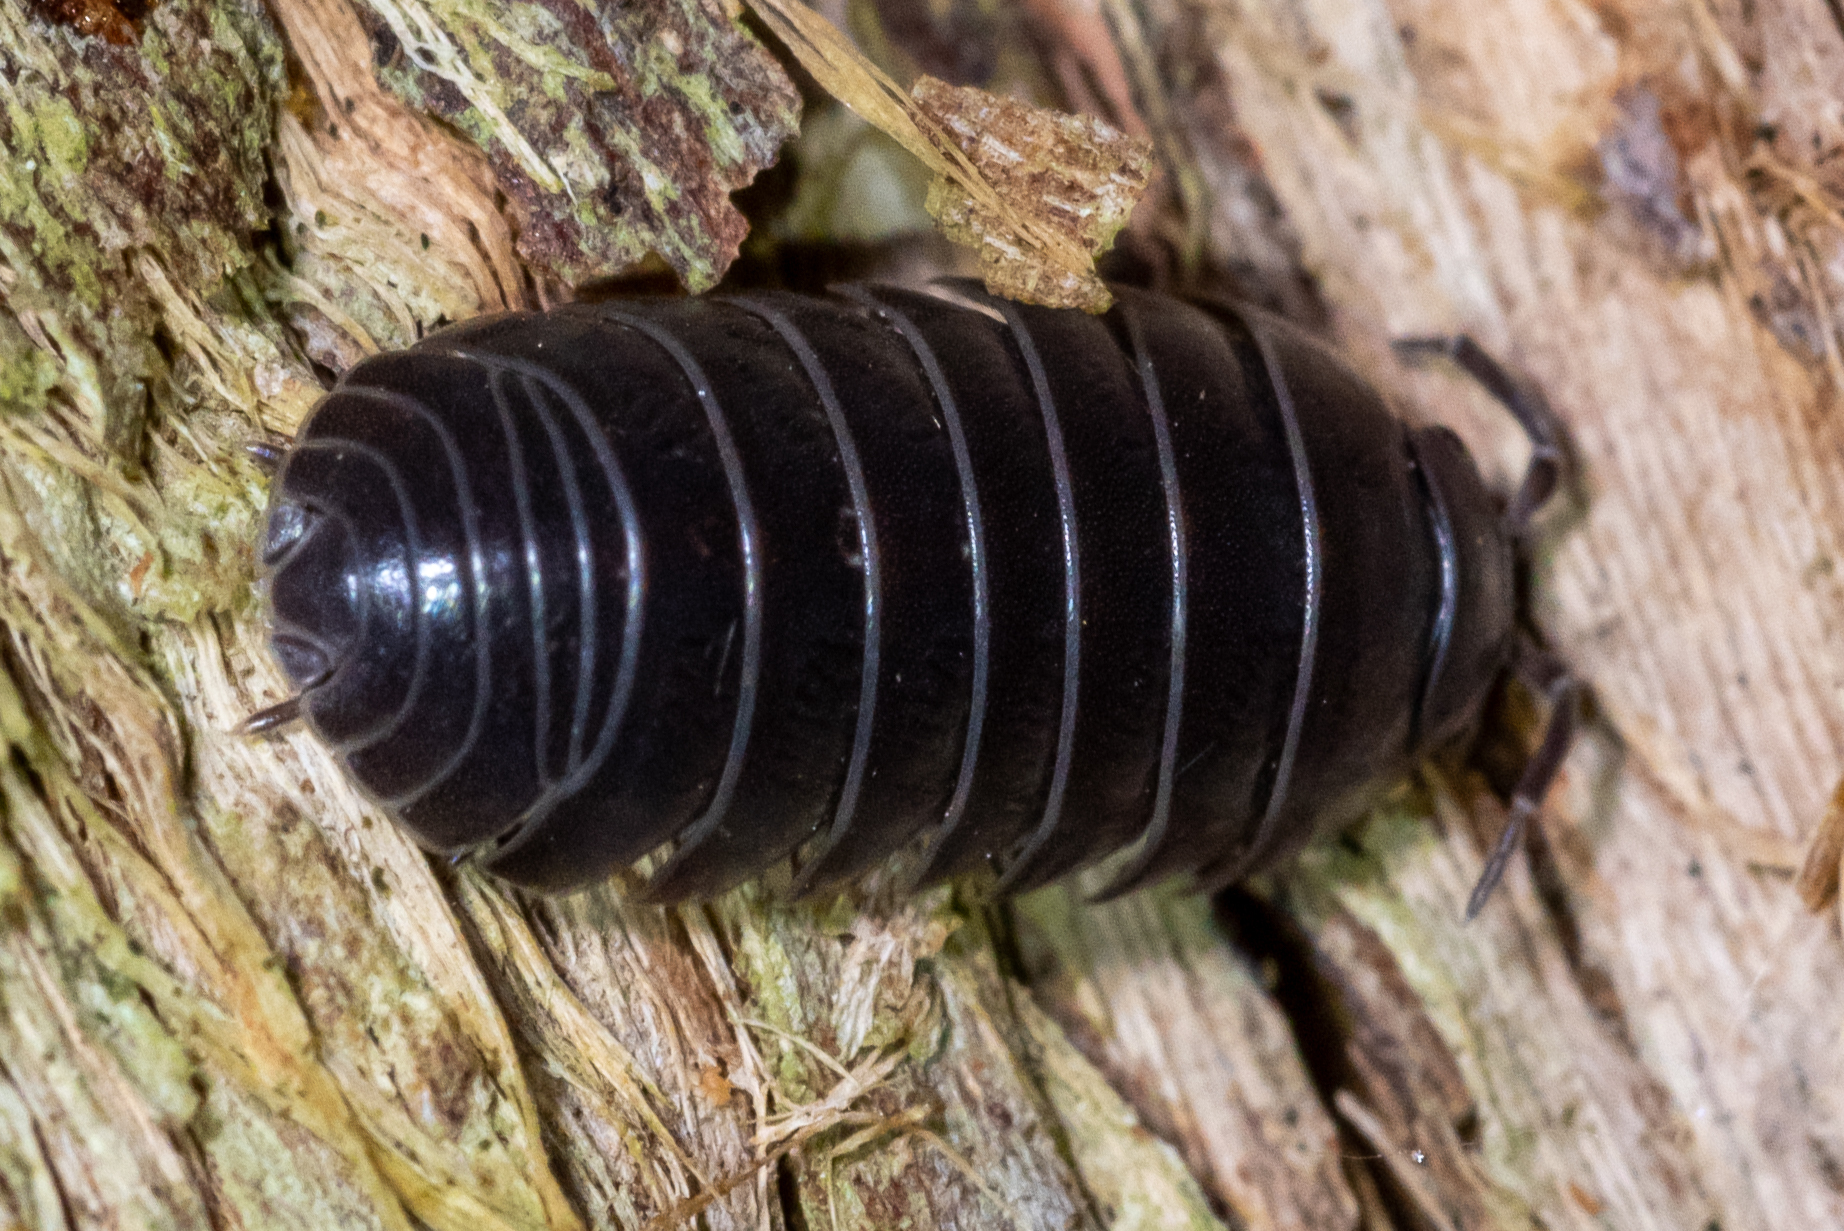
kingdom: Animalia
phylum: Arthropoda
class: Malacostraca
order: Isopoda
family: Armadillidiidae
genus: Armadillidium
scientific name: Armadillidium vulgare
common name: Common pill woodlouse
